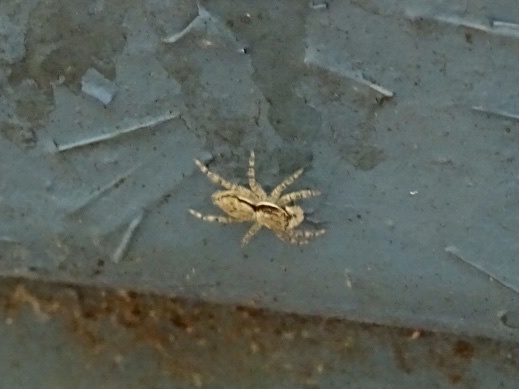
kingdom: Animalia
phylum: Arthropoda
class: Arachnida
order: Araneae
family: Salticidae
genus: Menemerus
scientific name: Menemerus bivittatus
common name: Gray wall jumper
